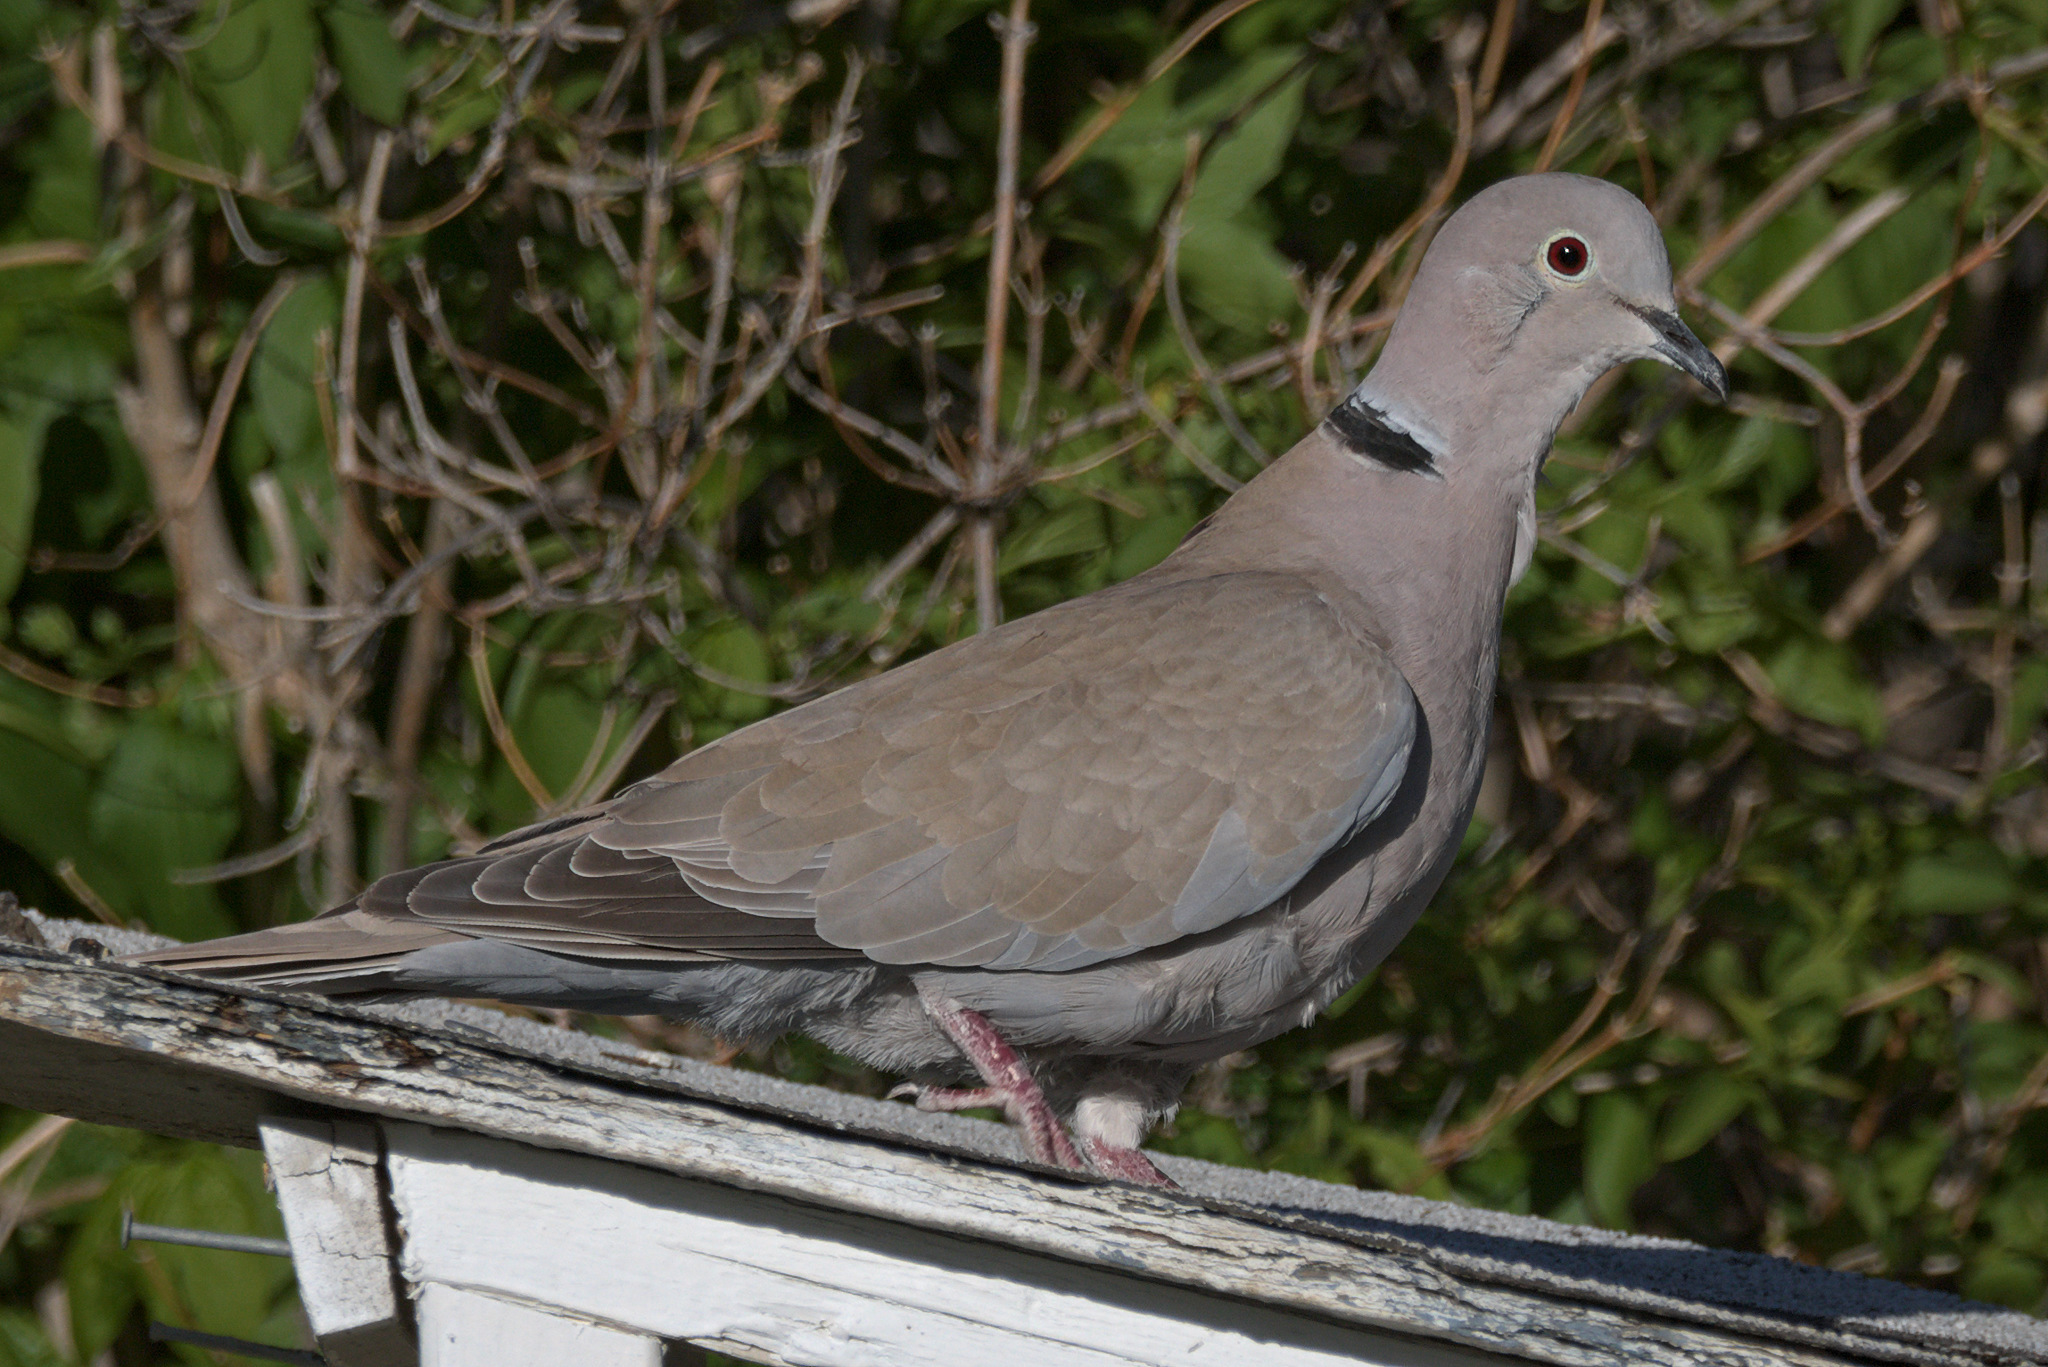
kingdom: Animalia
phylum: Chordata
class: Aves
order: Columbiformes
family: Columbidae
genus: Streptopelia
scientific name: Streptopelia decaocto
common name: Eurasian collared dove
